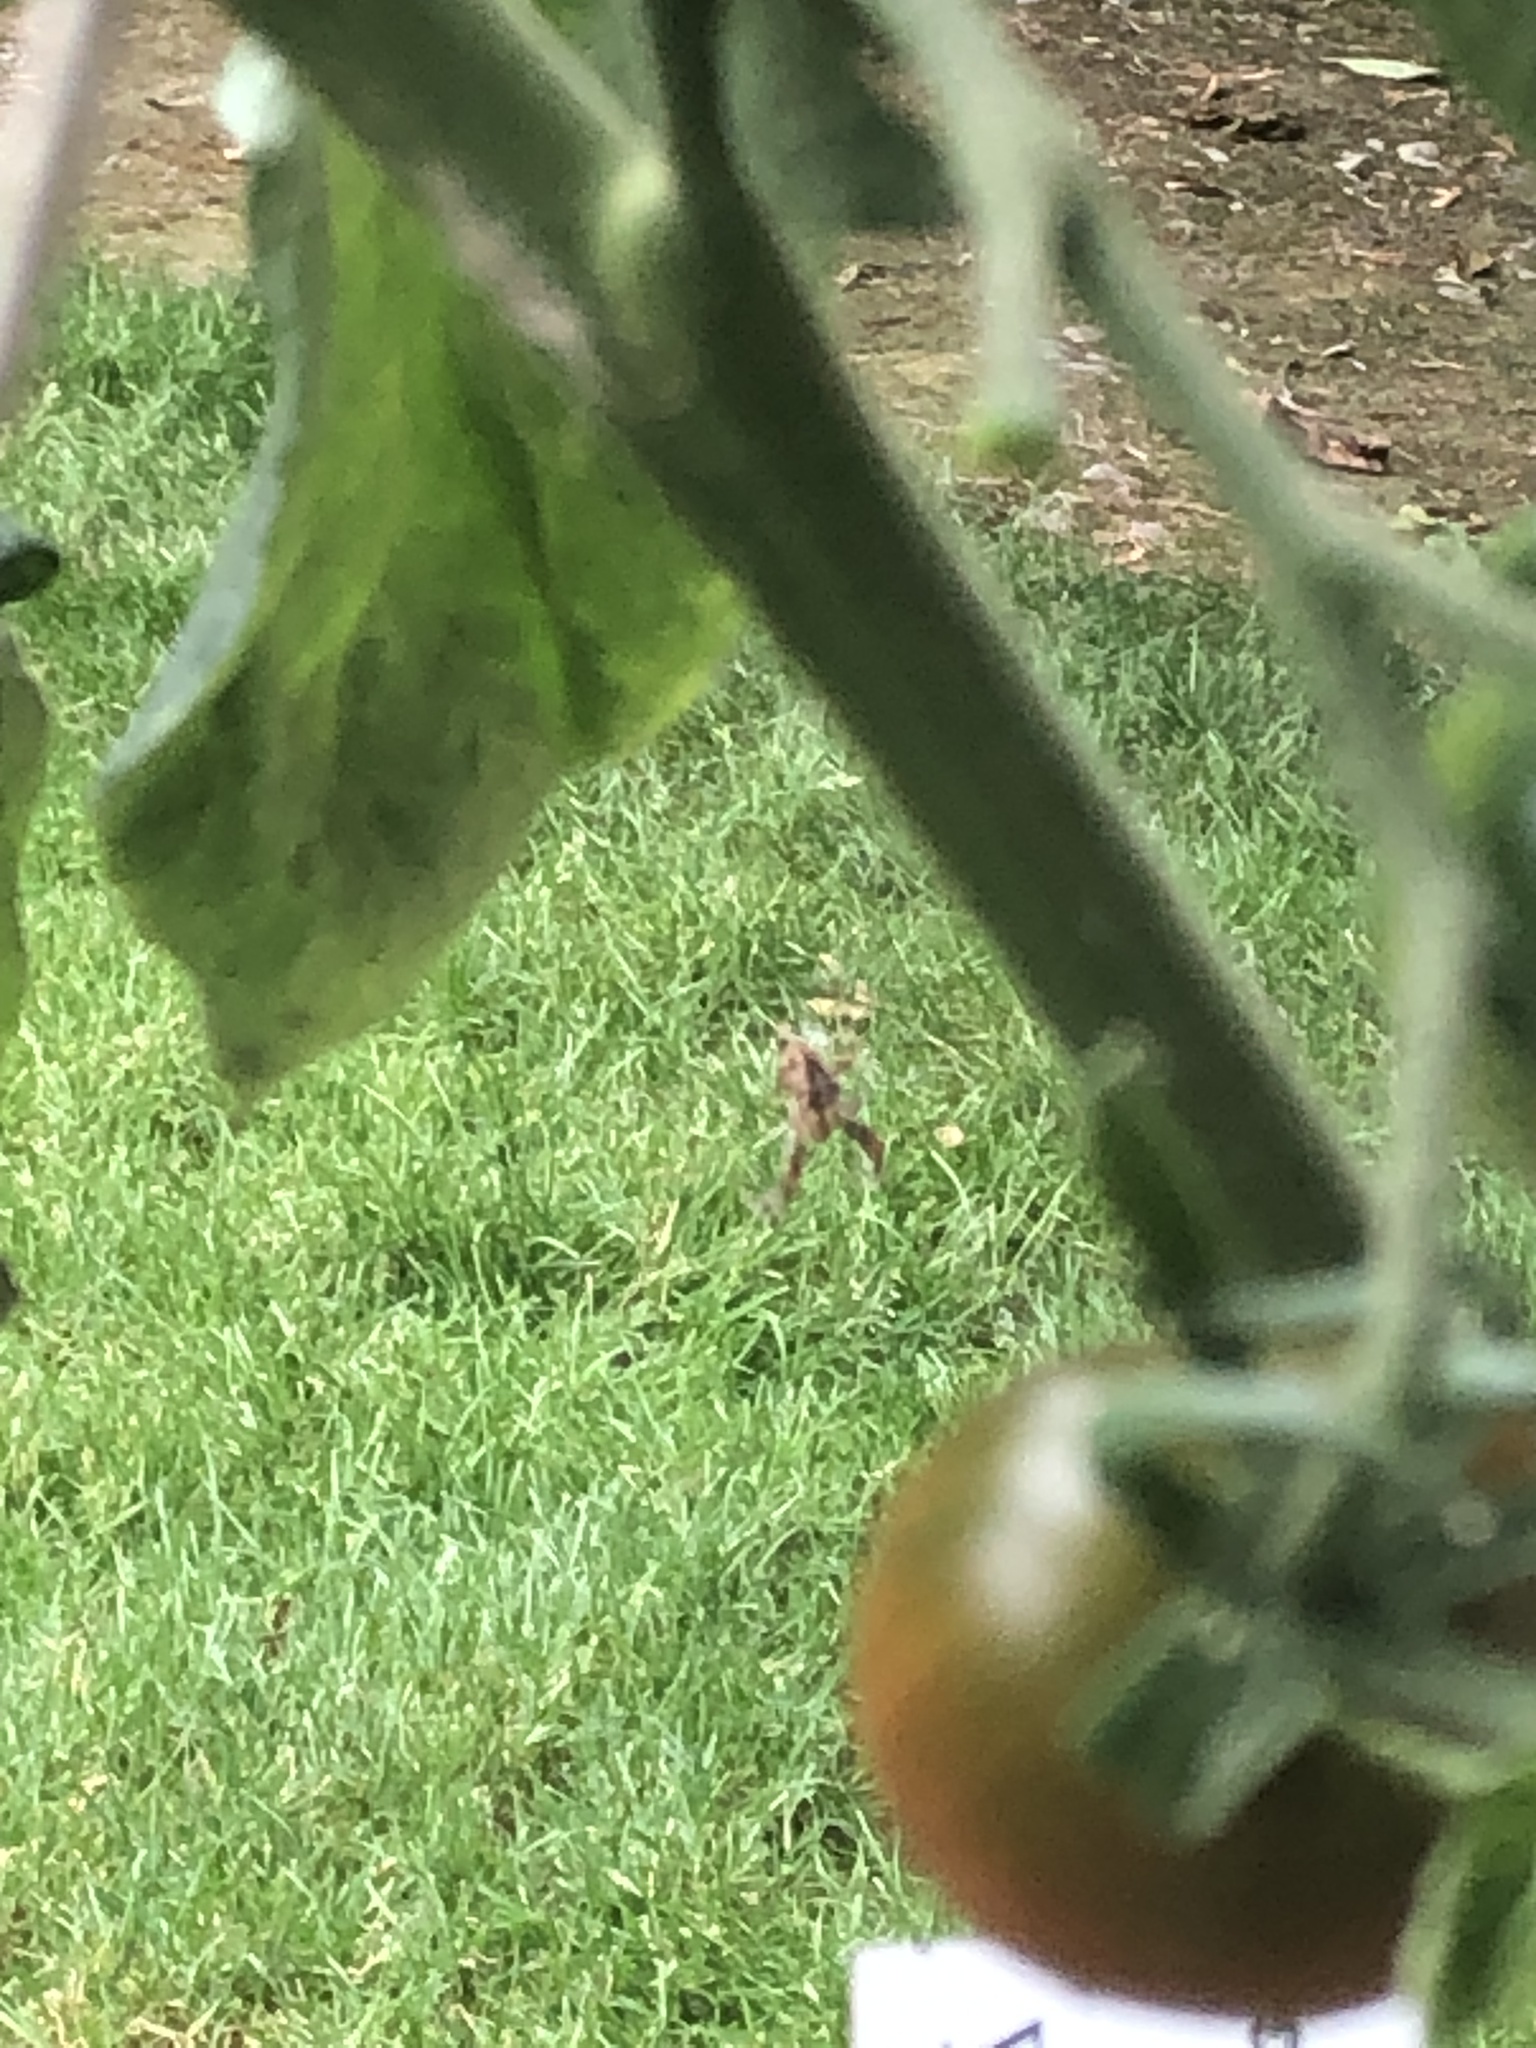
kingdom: Animalia
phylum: Arthropoda
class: Arachnida
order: Araneae
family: Araneidae
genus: Araneus
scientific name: Araneus diadematus
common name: Cross orbweaver
